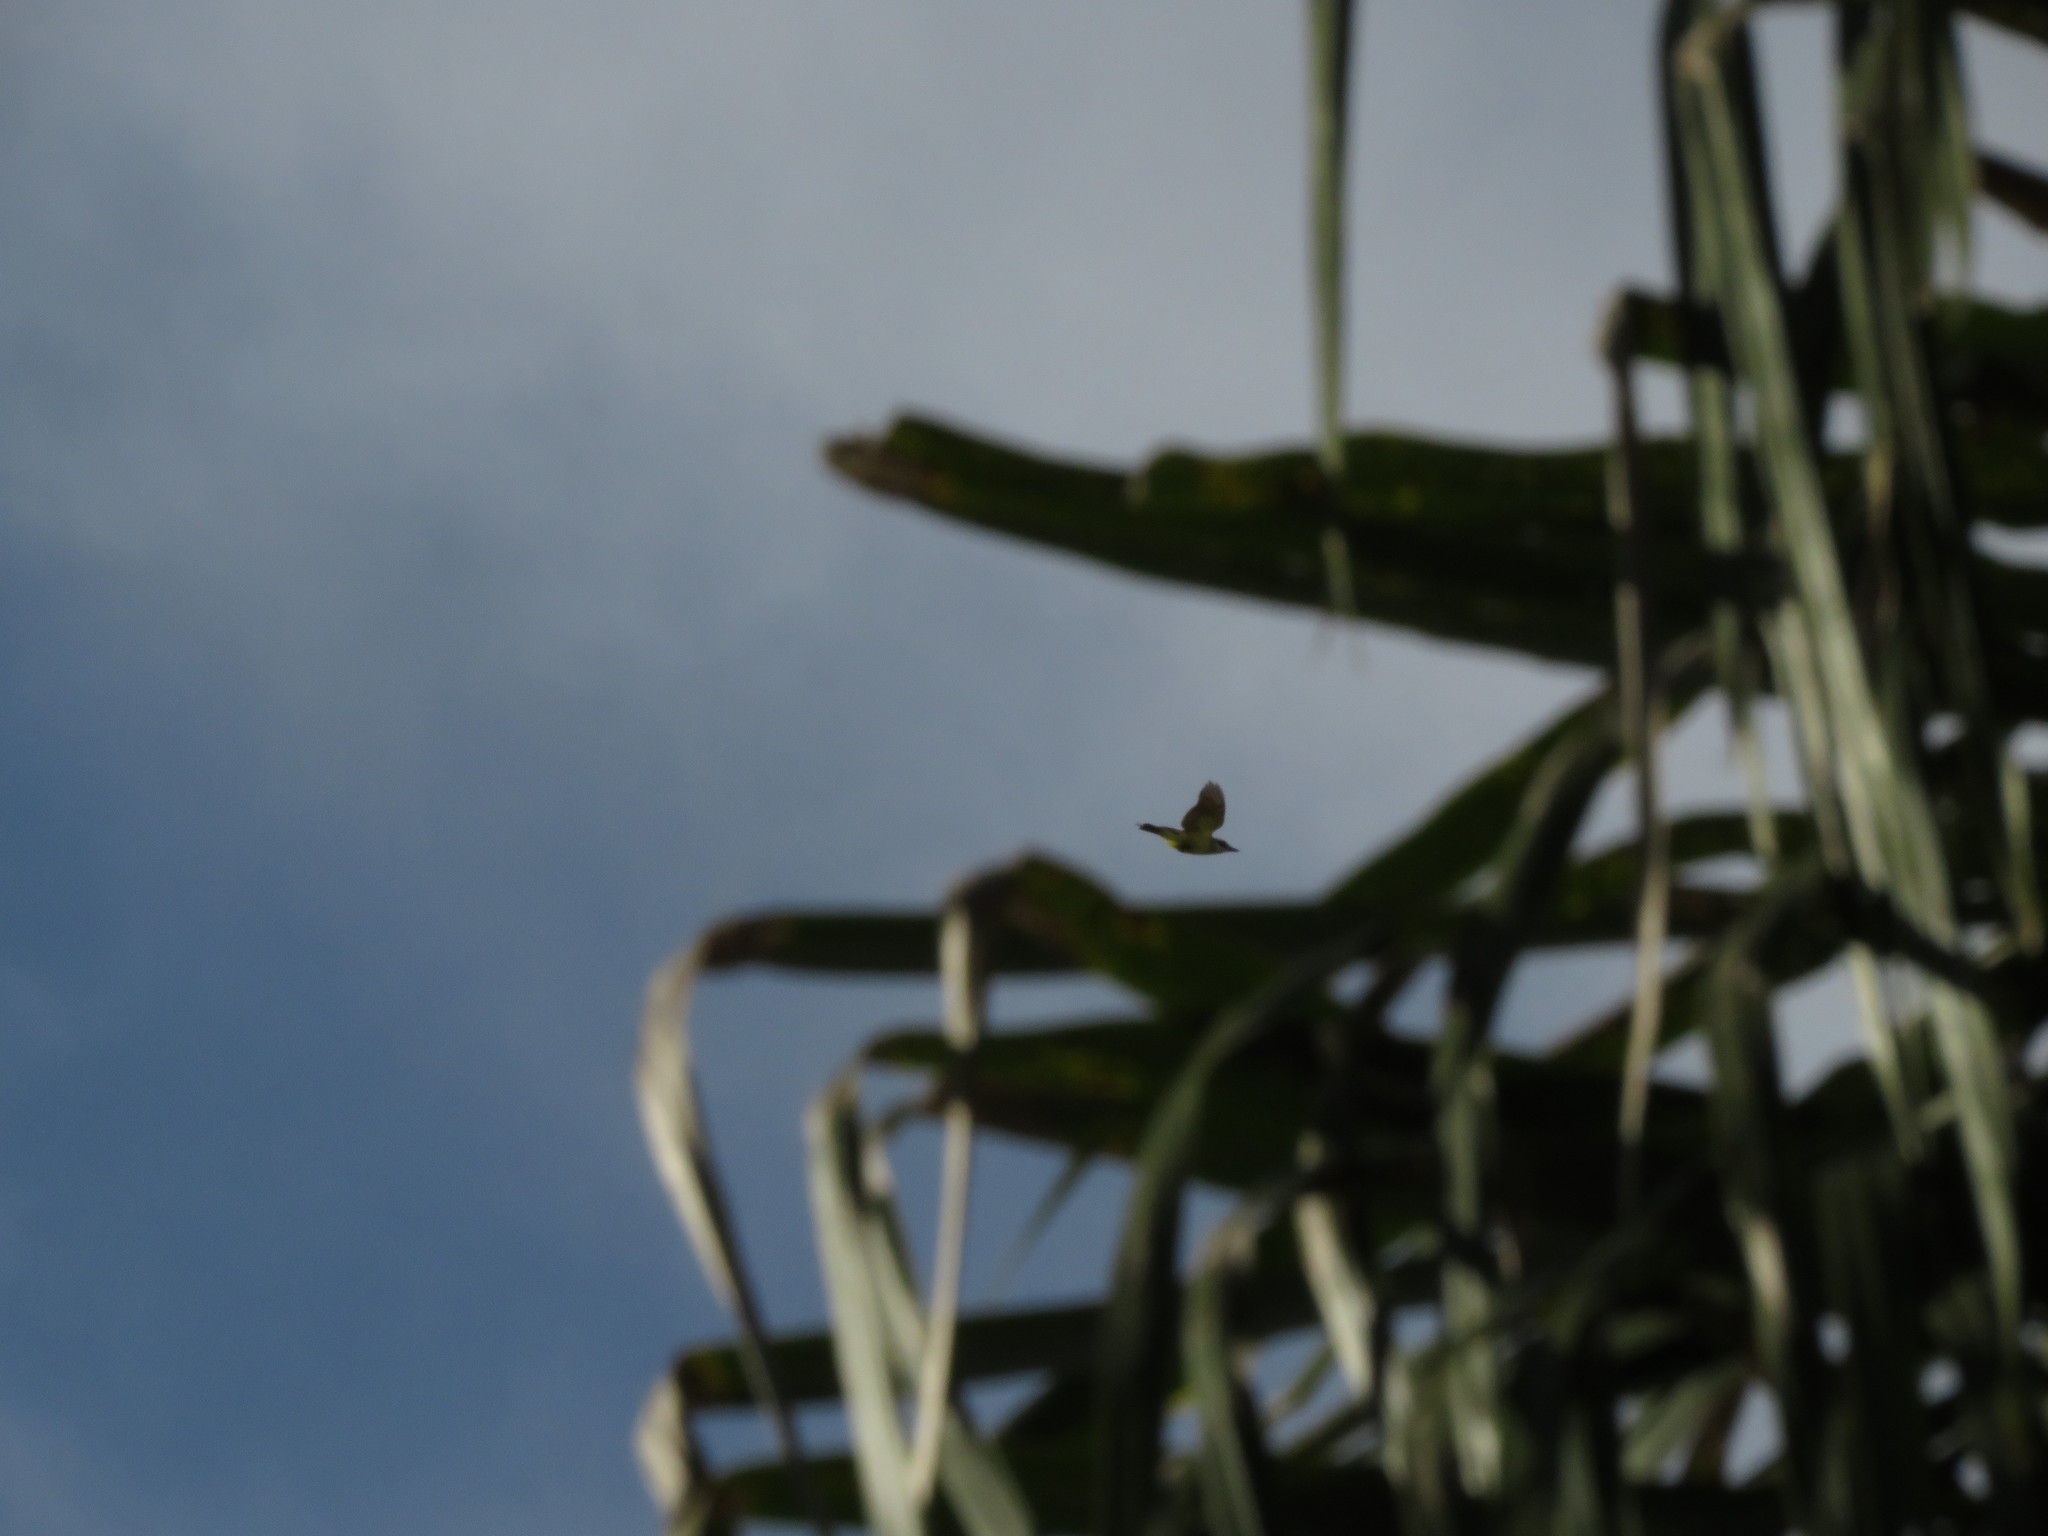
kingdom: Animalia
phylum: Chordata
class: Aves
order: Passeriformes
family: Tyrannidae
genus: Pitangus
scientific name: Pitangus sulphuratus
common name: Great kiskadee
